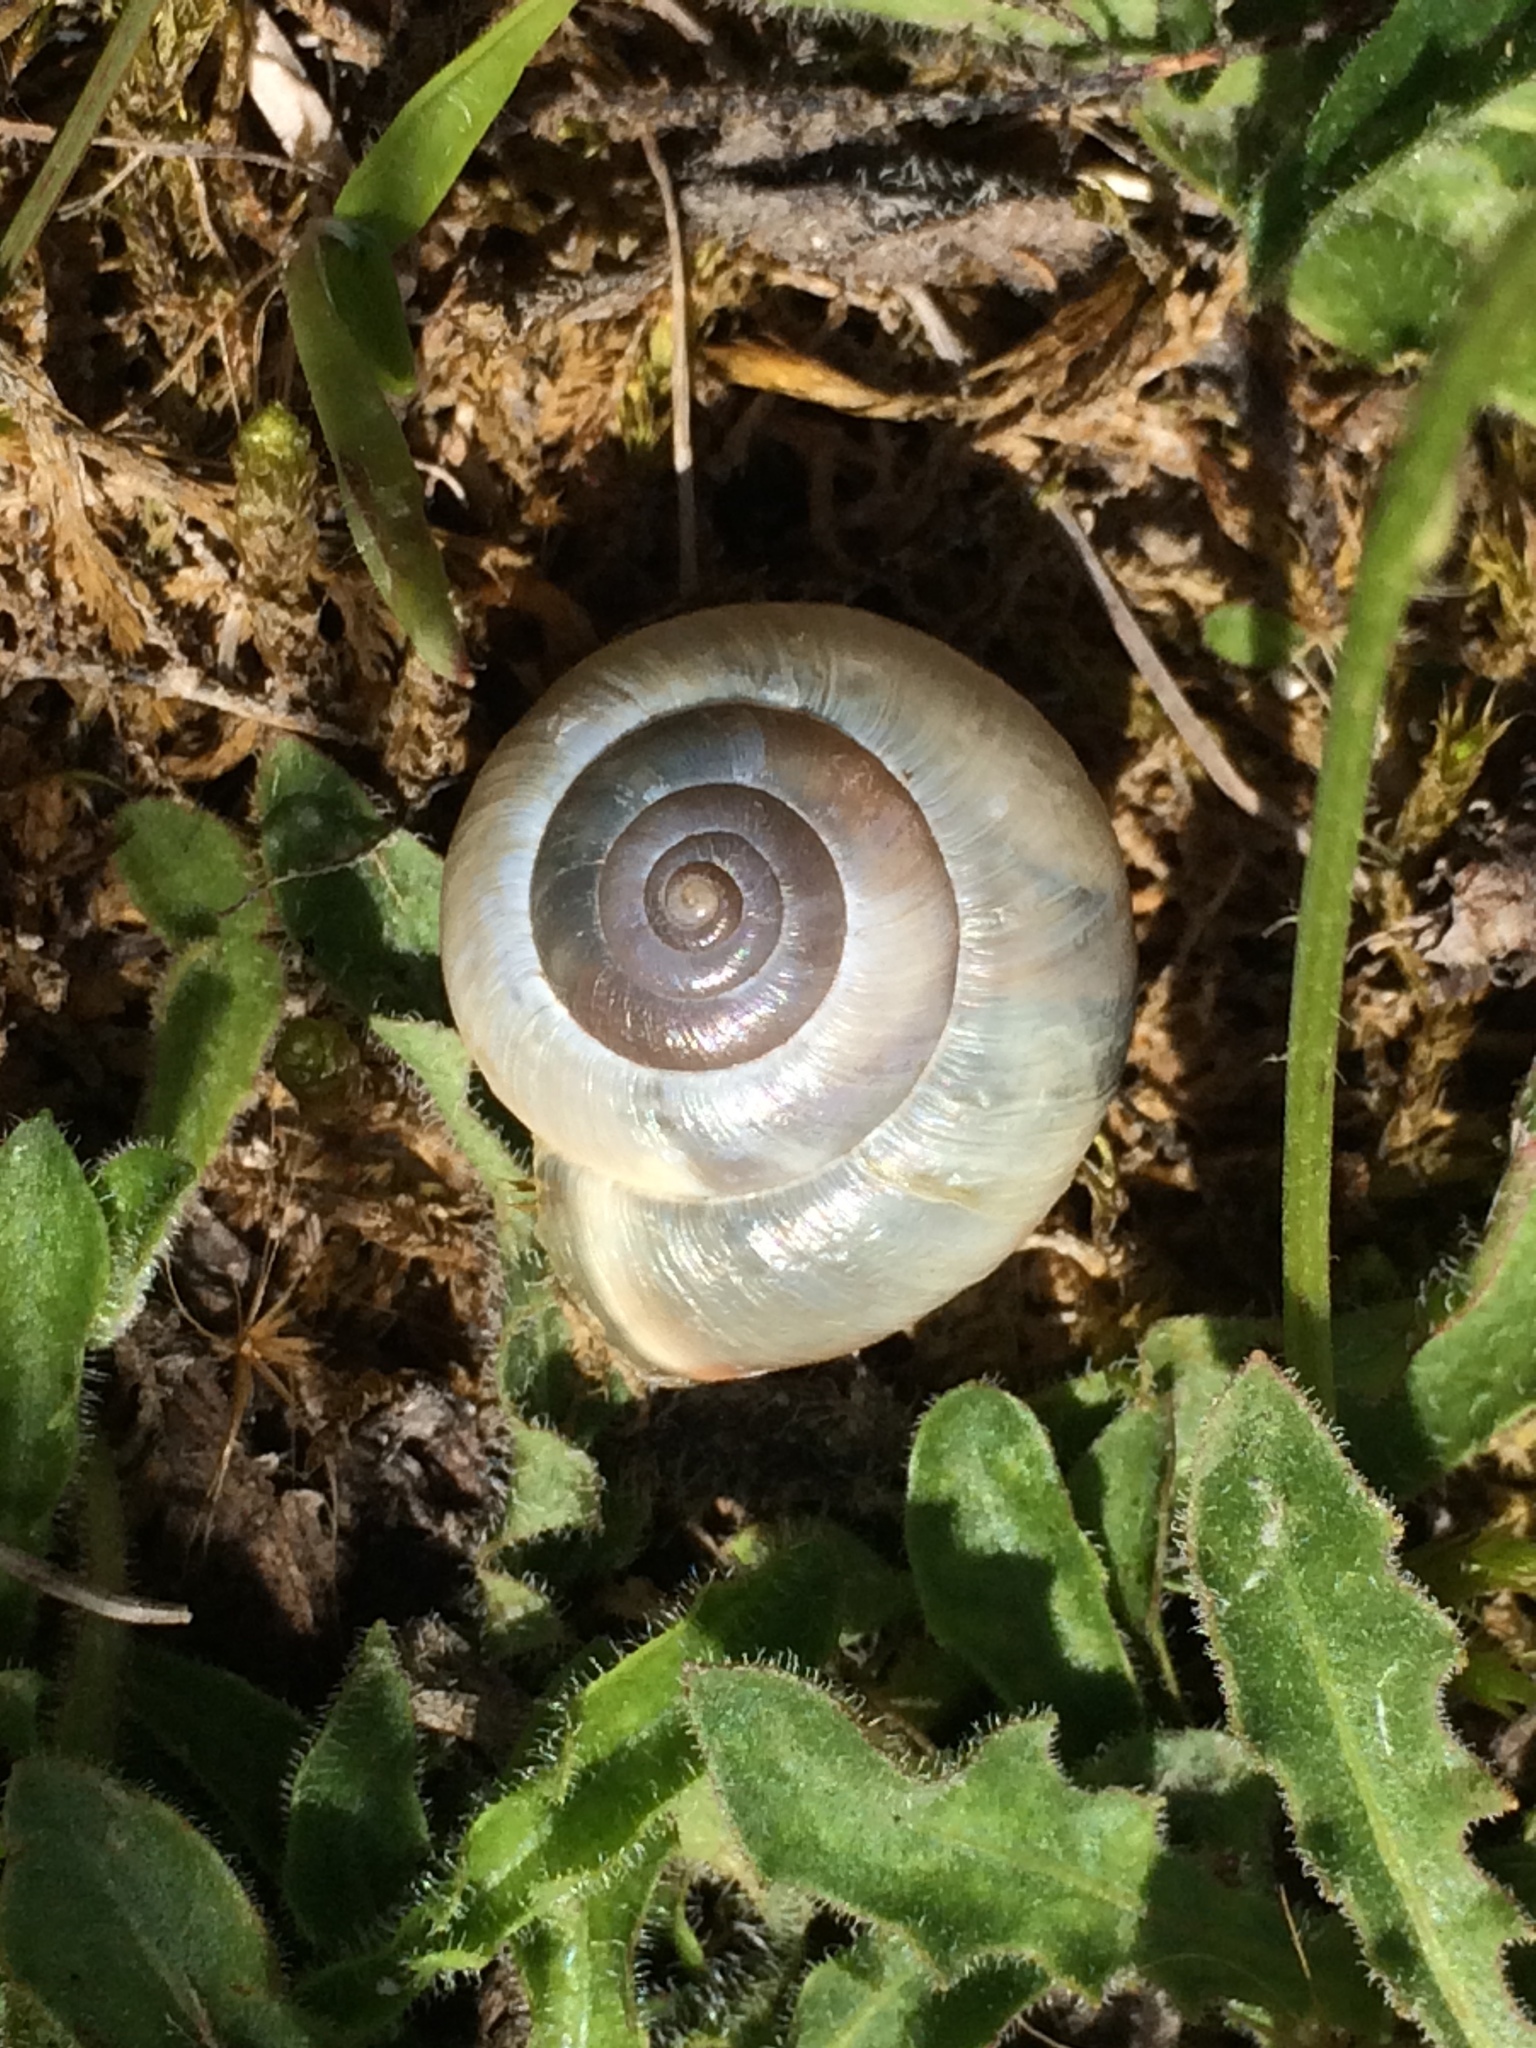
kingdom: Animalia
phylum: Mollusca
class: Gastropoda
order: Stylommatophora
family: Hygromiidae
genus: Monacha
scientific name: Monacha cantiana
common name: Kentish snail
